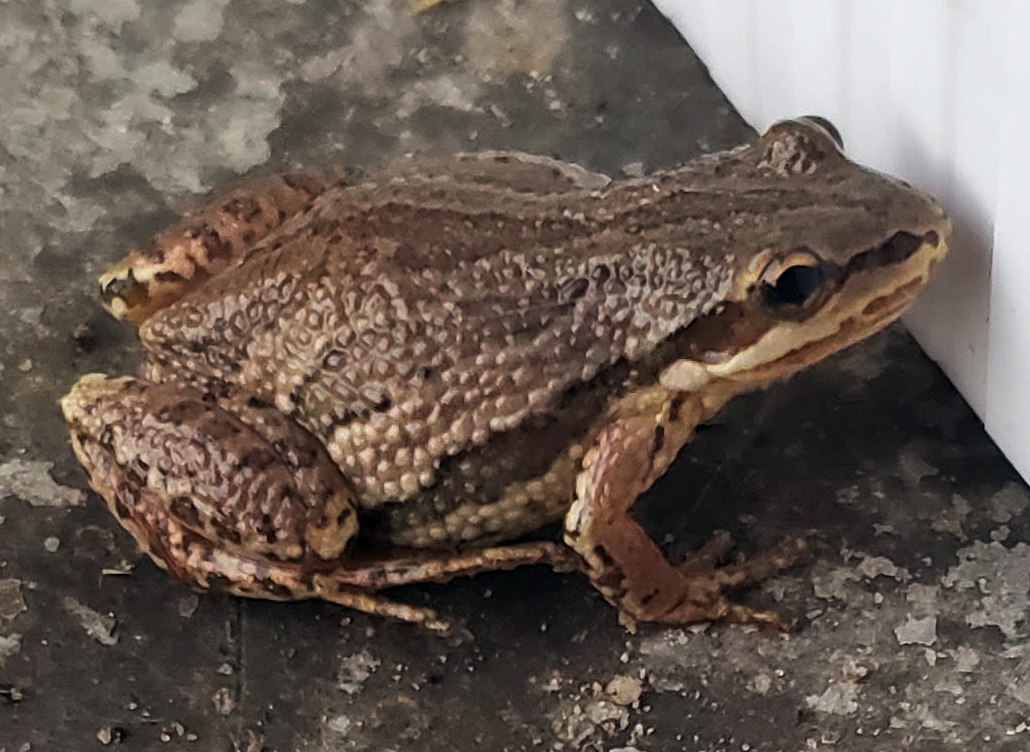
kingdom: Animalia
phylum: Chordata
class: Amphibia
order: Anura
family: Hylidae
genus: Pseudacris
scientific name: Pseudacris maculata
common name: Boreal chorus frog
